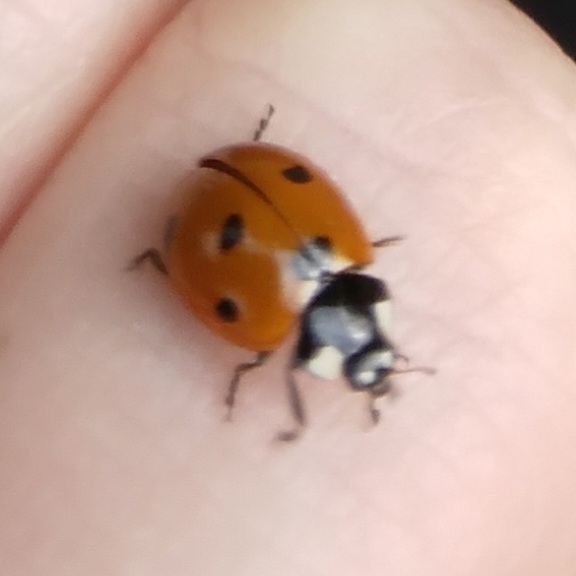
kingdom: Animalia
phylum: Arthropoda
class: Insecta
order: Coleoptera
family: Coccinellidae
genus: Coccinella
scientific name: Coccinella septempunctata
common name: Sevenspotted lady beetle
